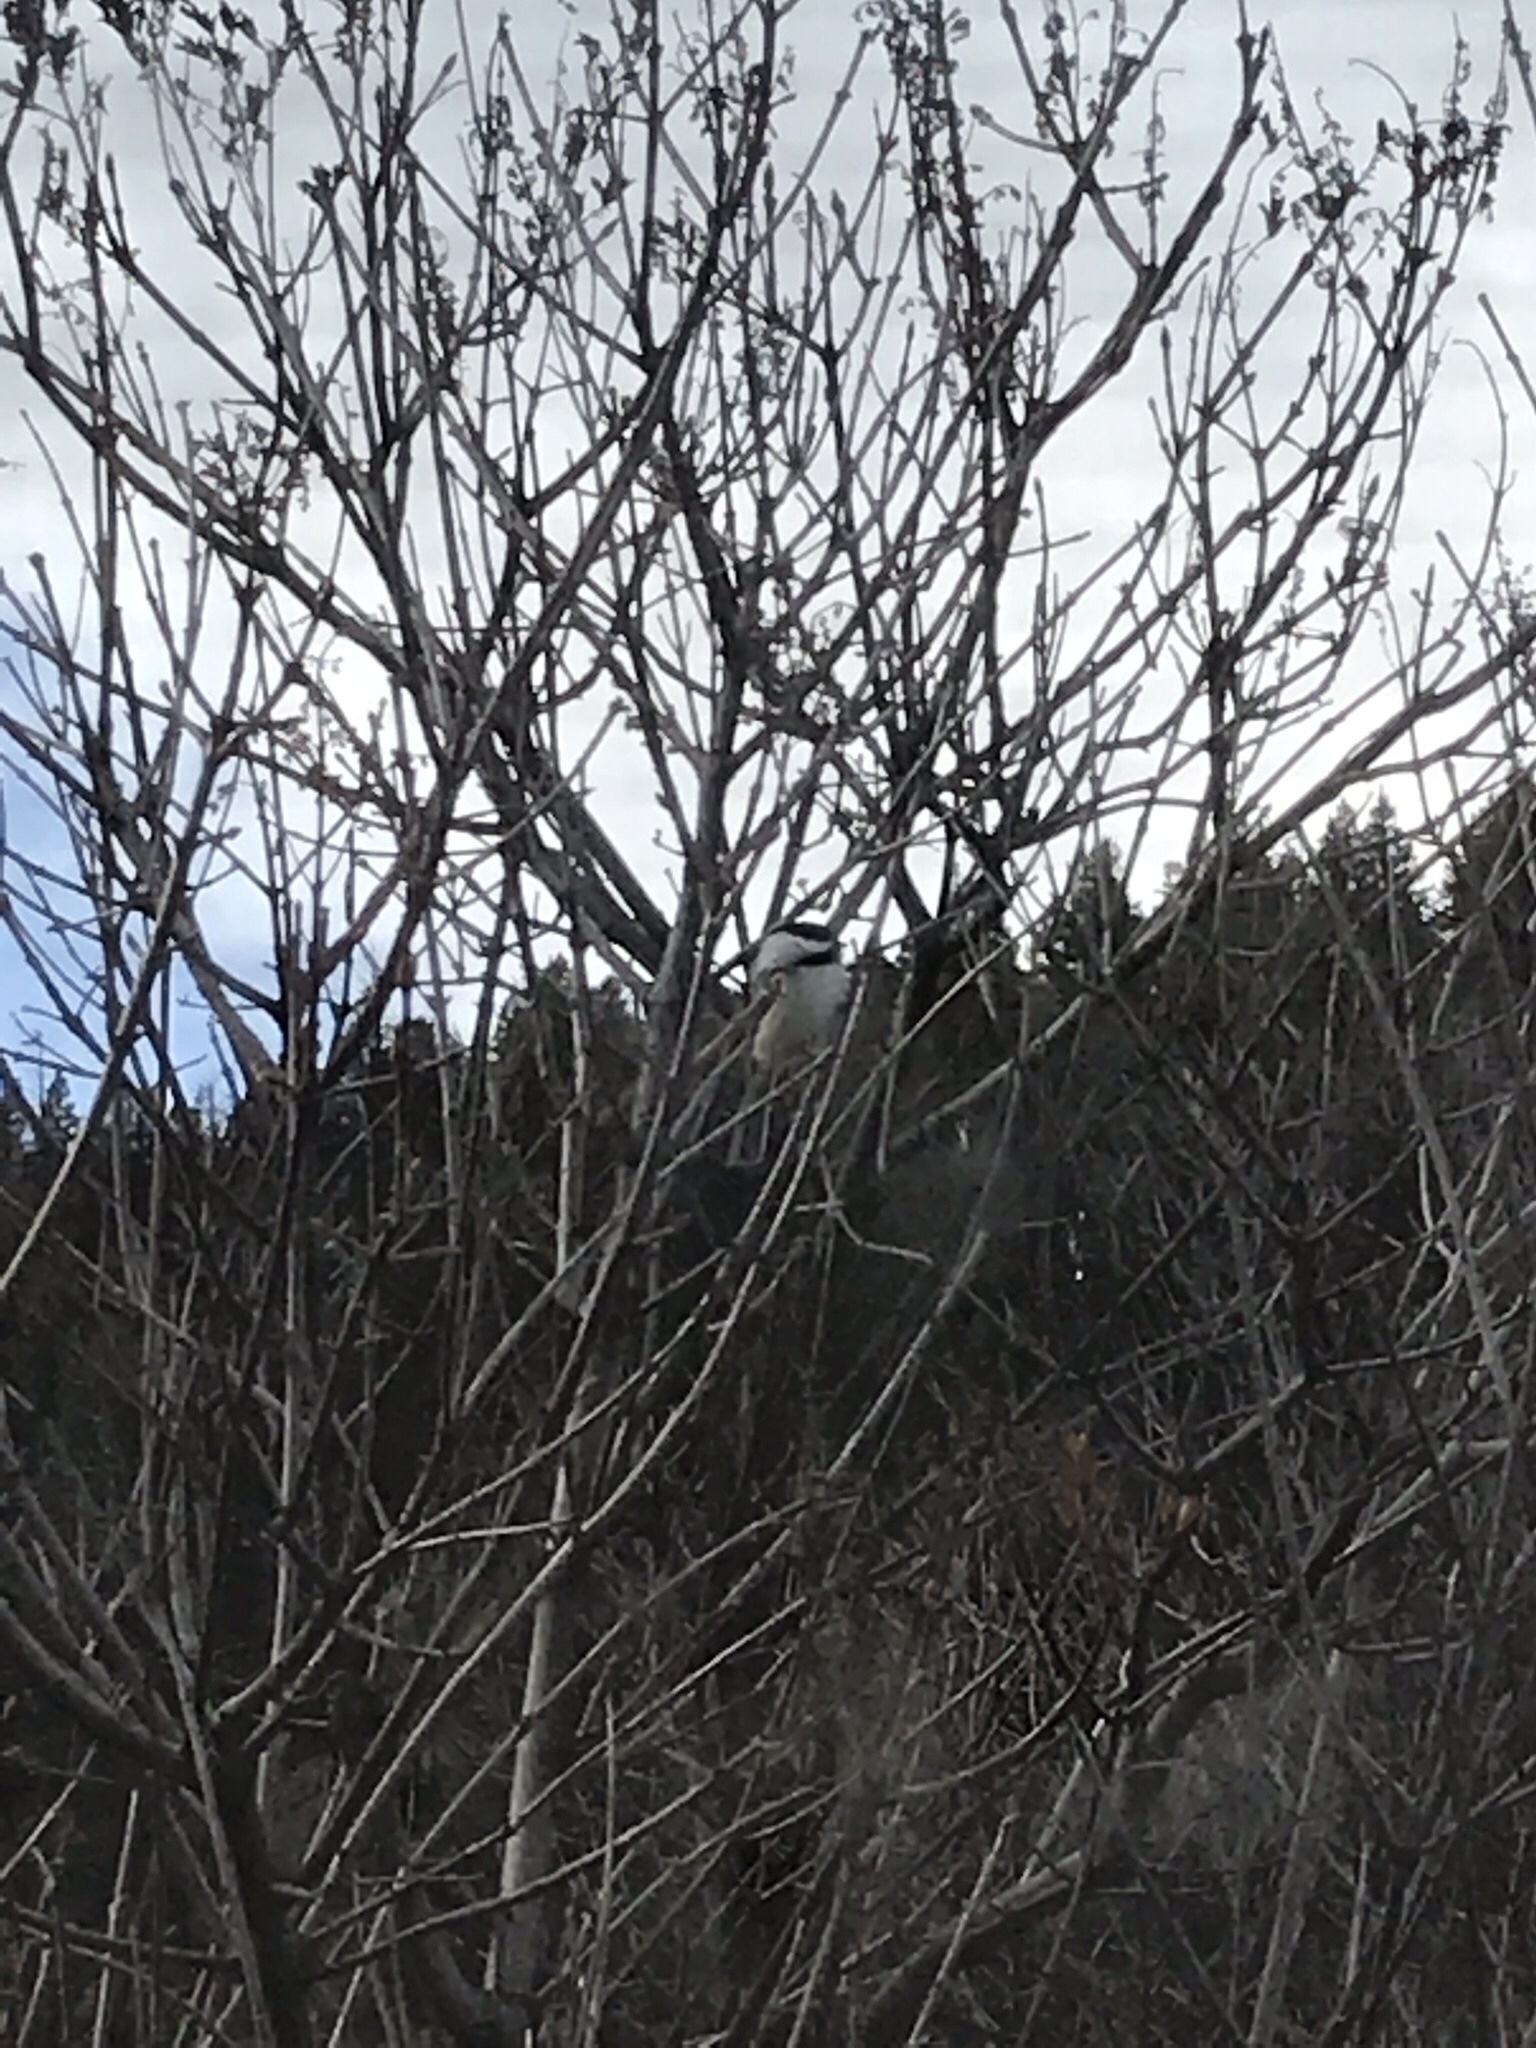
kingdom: Animalia
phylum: Chordata
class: Aves
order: Passeriformes
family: Paridae
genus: Poecile
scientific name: Poecile atricapillus
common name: Black-capped chickadee
